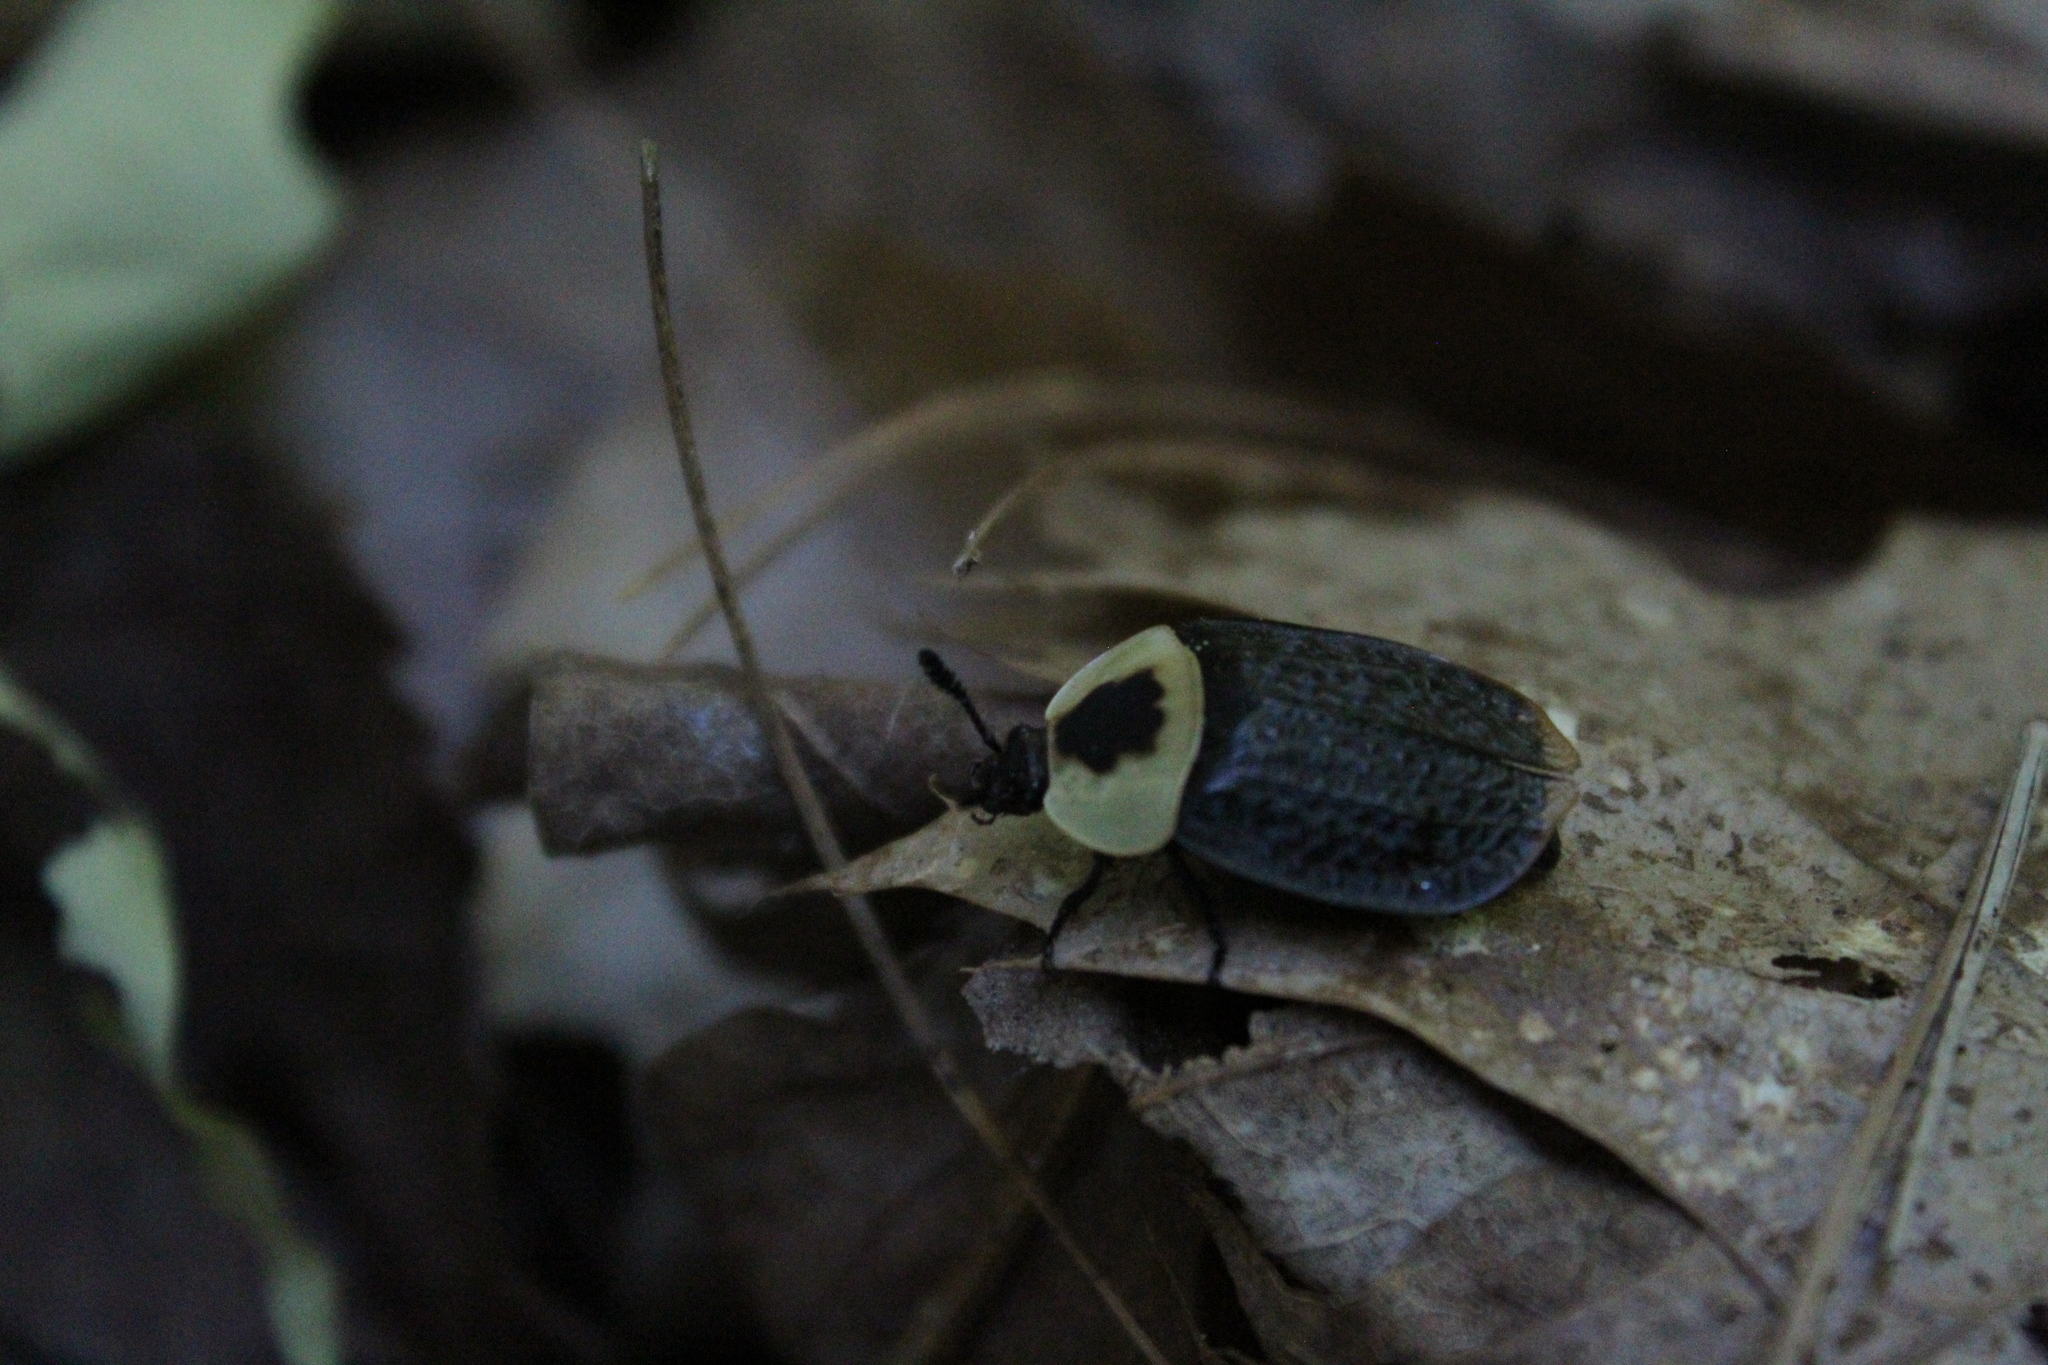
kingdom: Animalia
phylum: Arthropoda
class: Insecta
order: Coleoptera
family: Staphylinidae
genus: Necrophila
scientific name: Necrophila americana
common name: American carrion beetle
